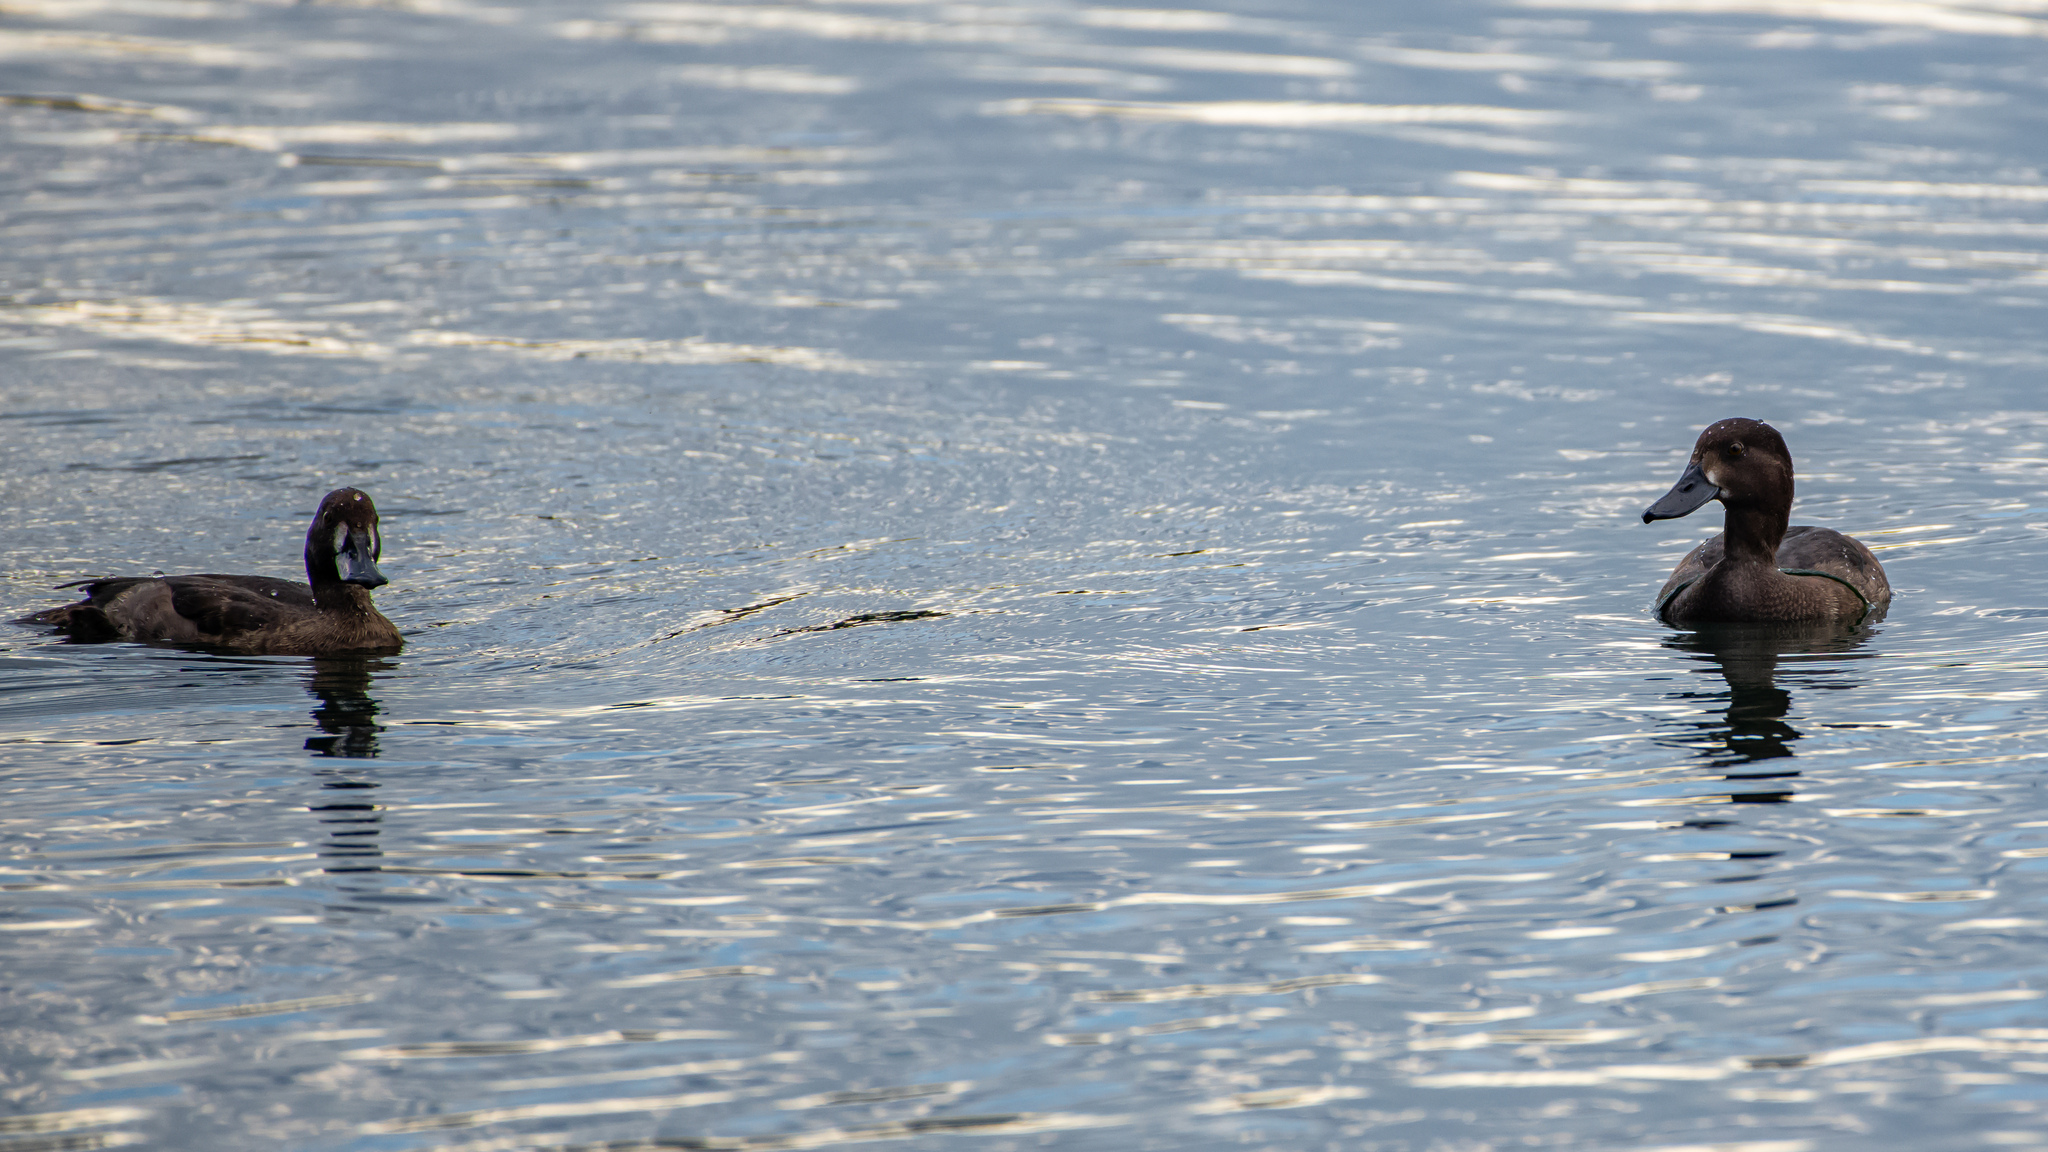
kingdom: Animalia
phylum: Chordata
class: Aves
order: Anseriformes
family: Anatidae
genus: Aythya
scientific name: Aythya fuligula
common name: Tufted duck
